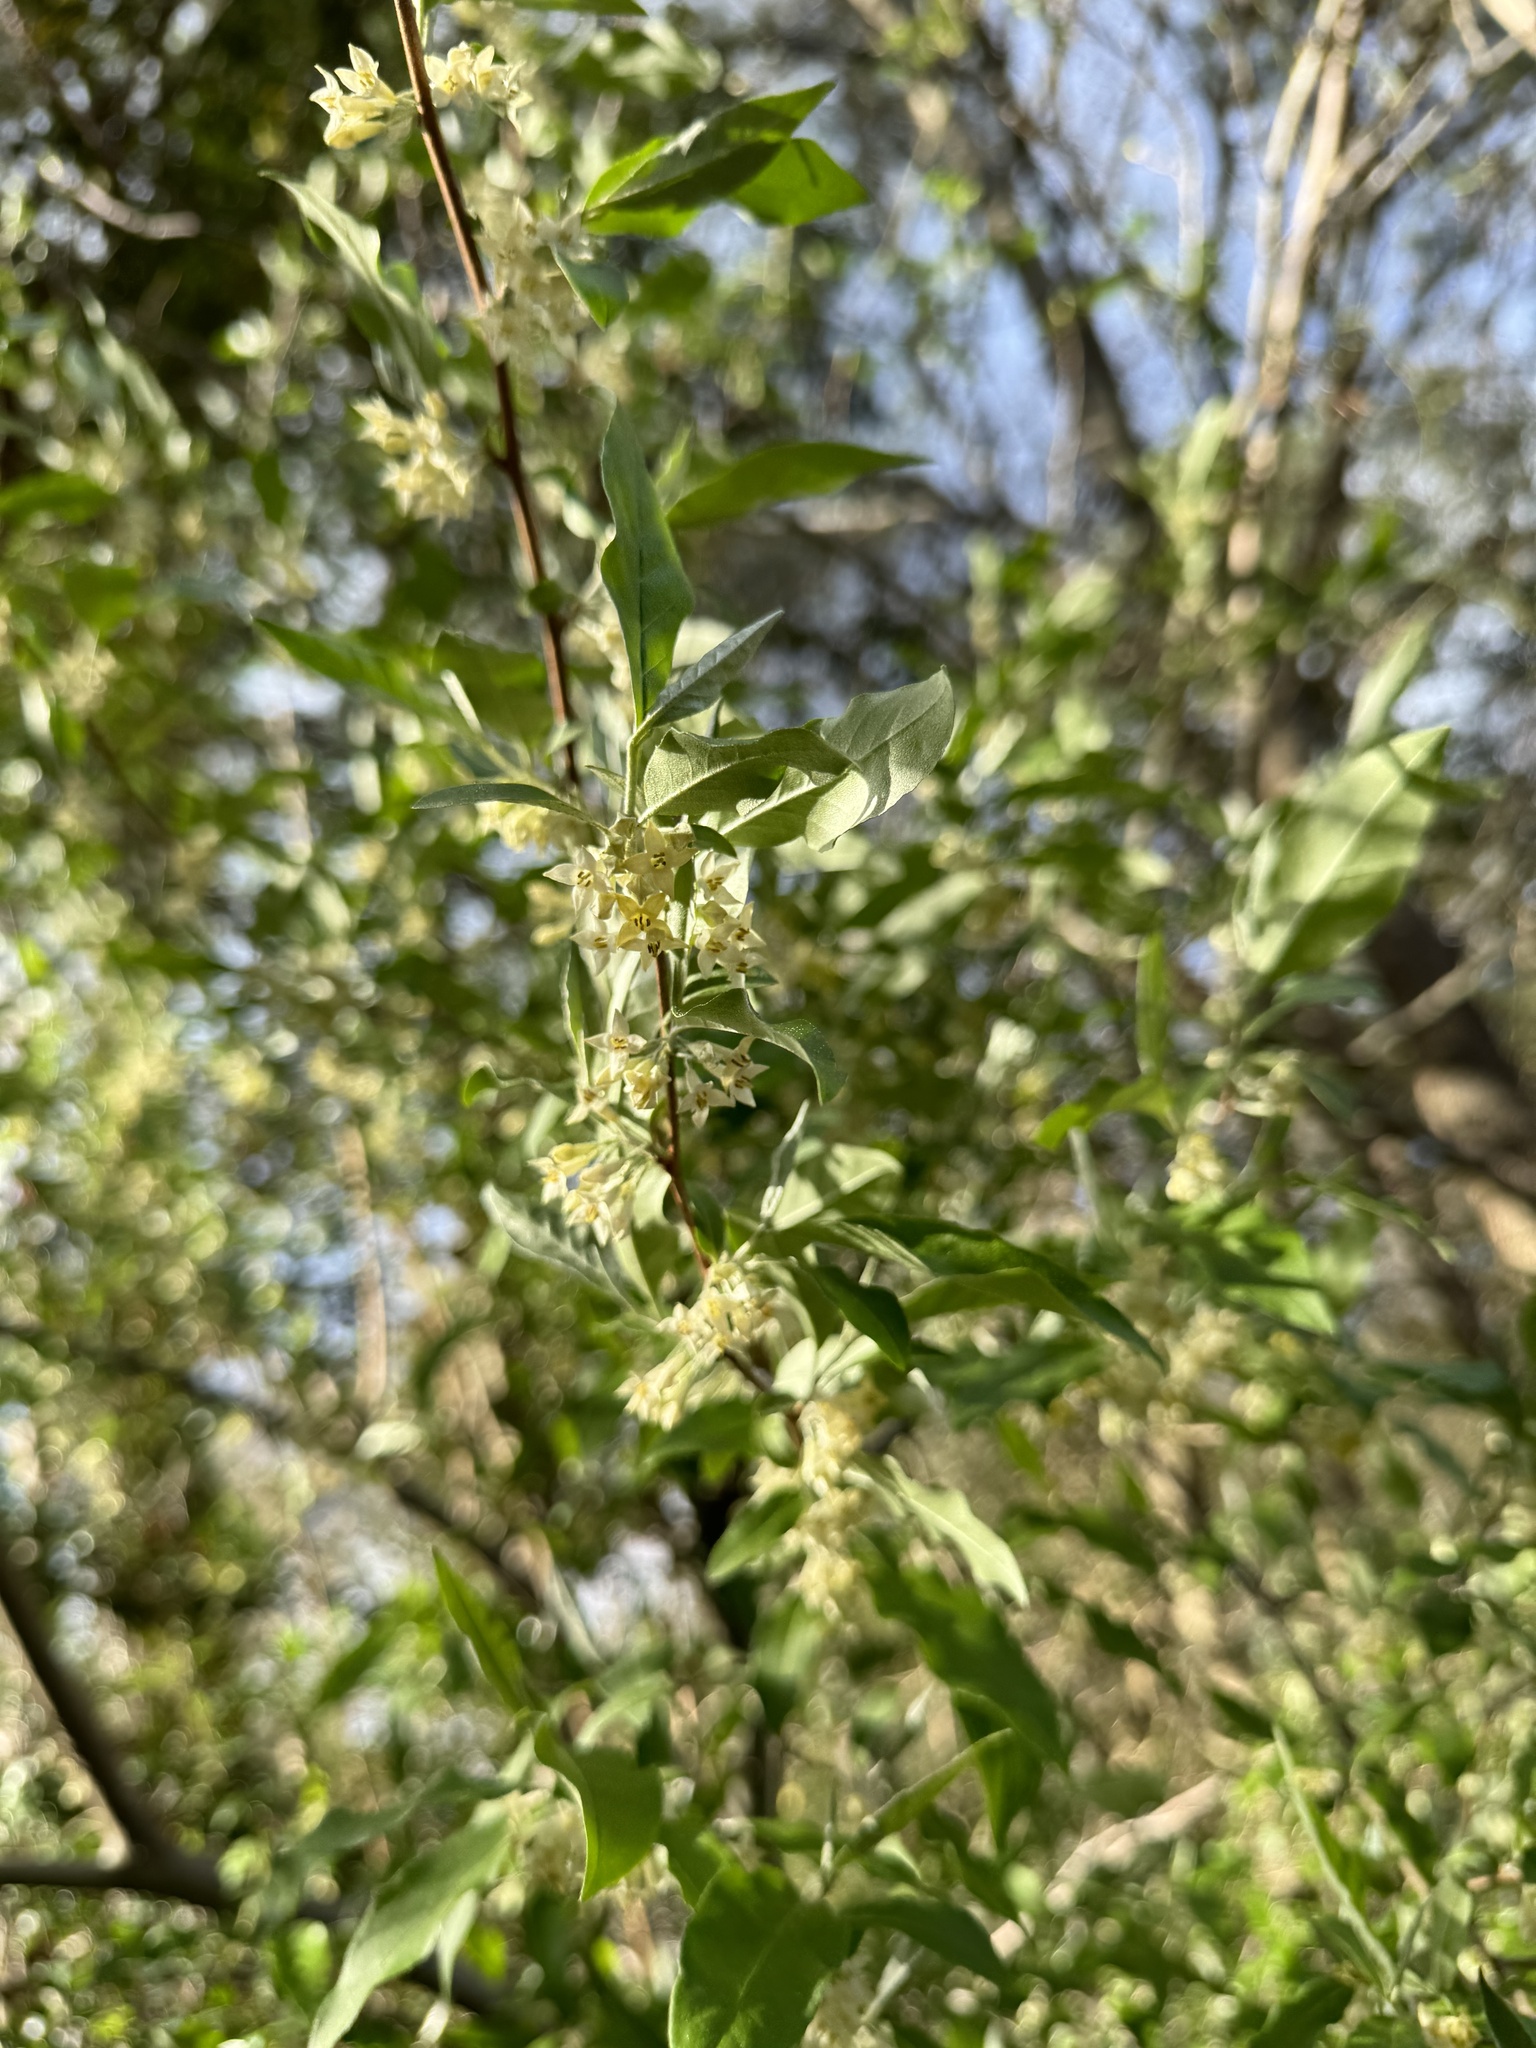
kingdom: Plantae
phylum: Tracheophyta
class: Magnoliopsida
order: Rosales
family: Elaeagnaceae
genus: Elaeagnus
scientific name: Elaeagnus umbellata
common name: Autumn olive
